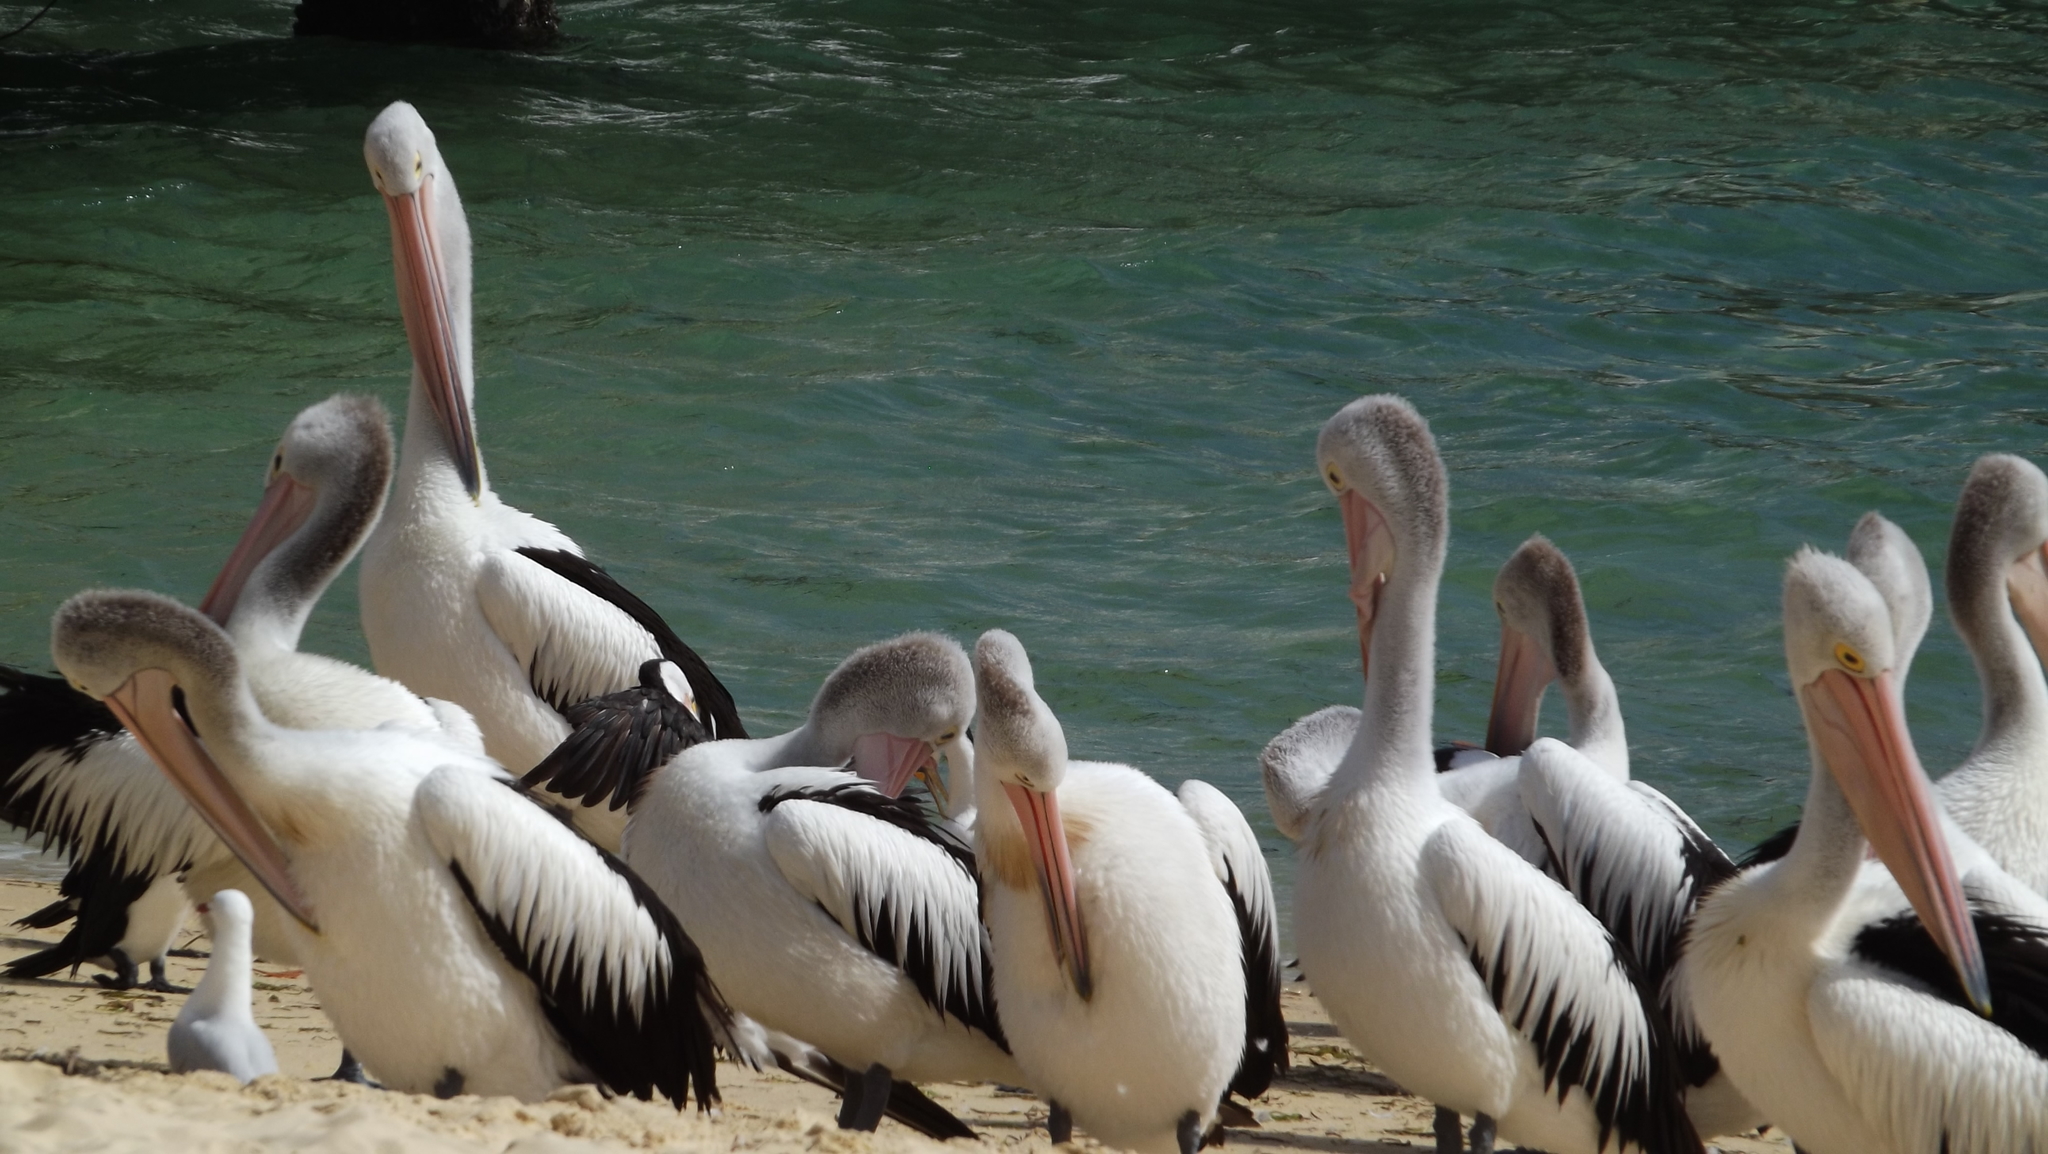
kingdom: Animalia
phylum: Chordata
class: Aves
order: Pelecaniformes
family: Pelecanidae
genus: Pelecanus
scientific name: Pelecanus conspicillatus
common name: Australian pelican
